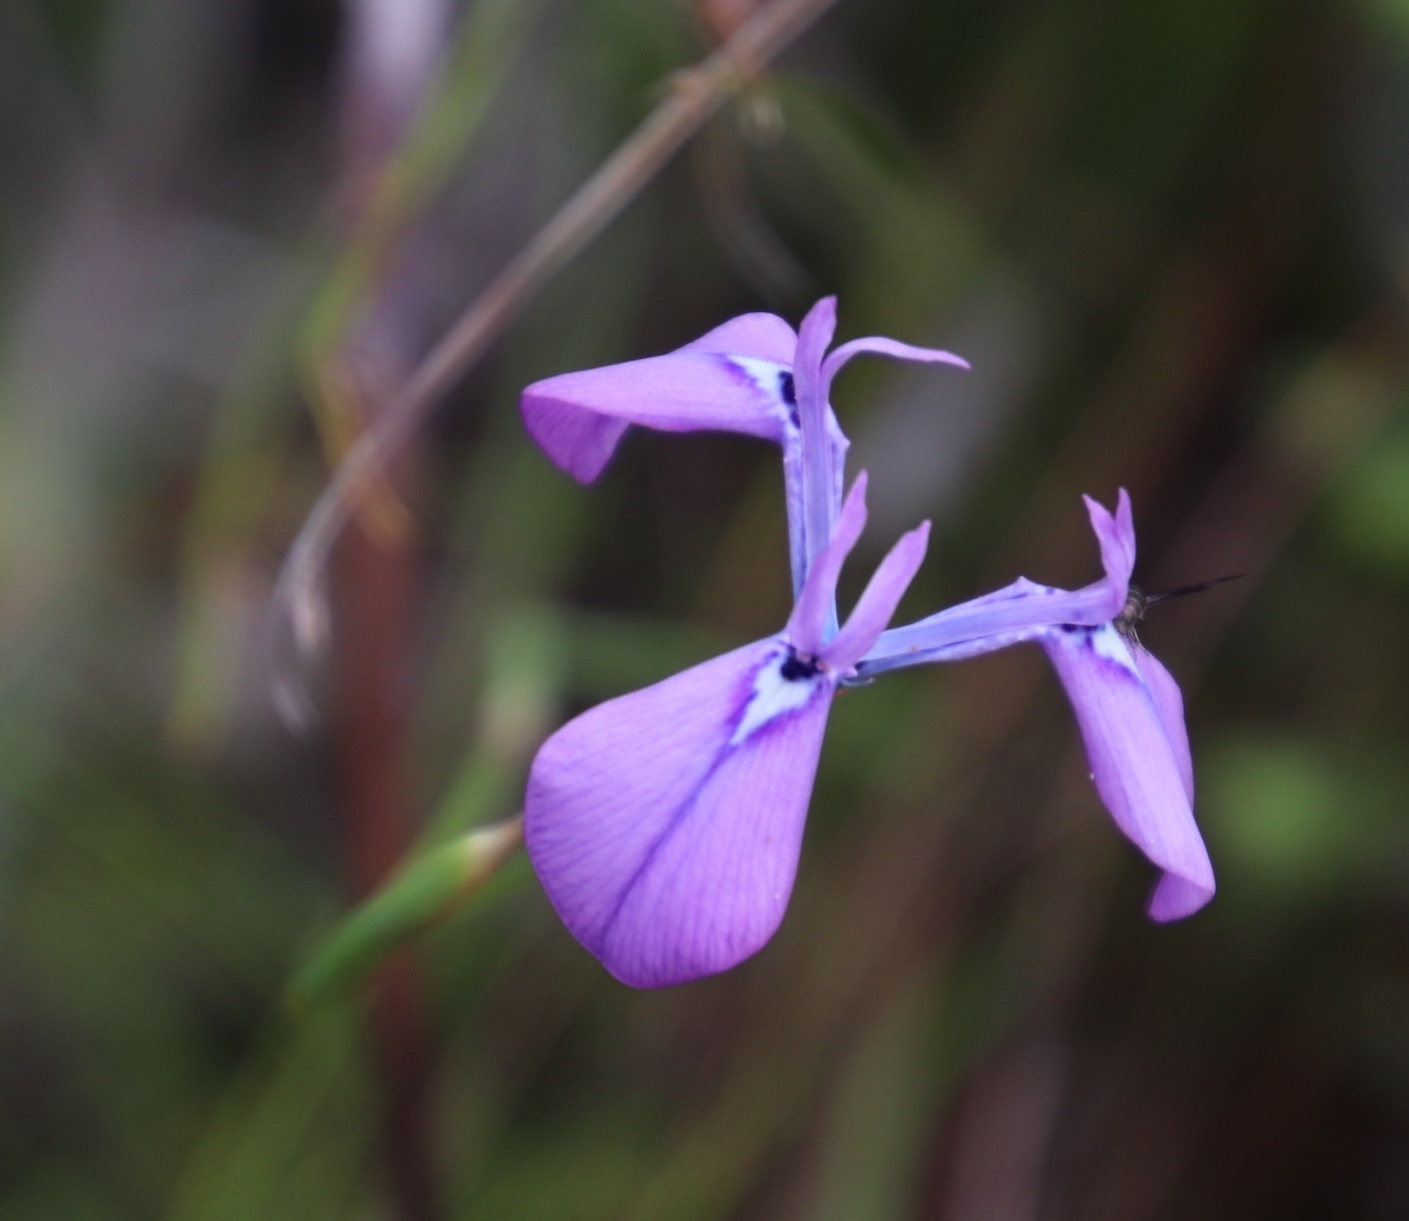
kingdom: Plantae
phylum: Tracheophyta
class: Liliopsida
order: Asparagales
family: Iridaceae
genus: Moraea
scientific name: Moraea tripetala
